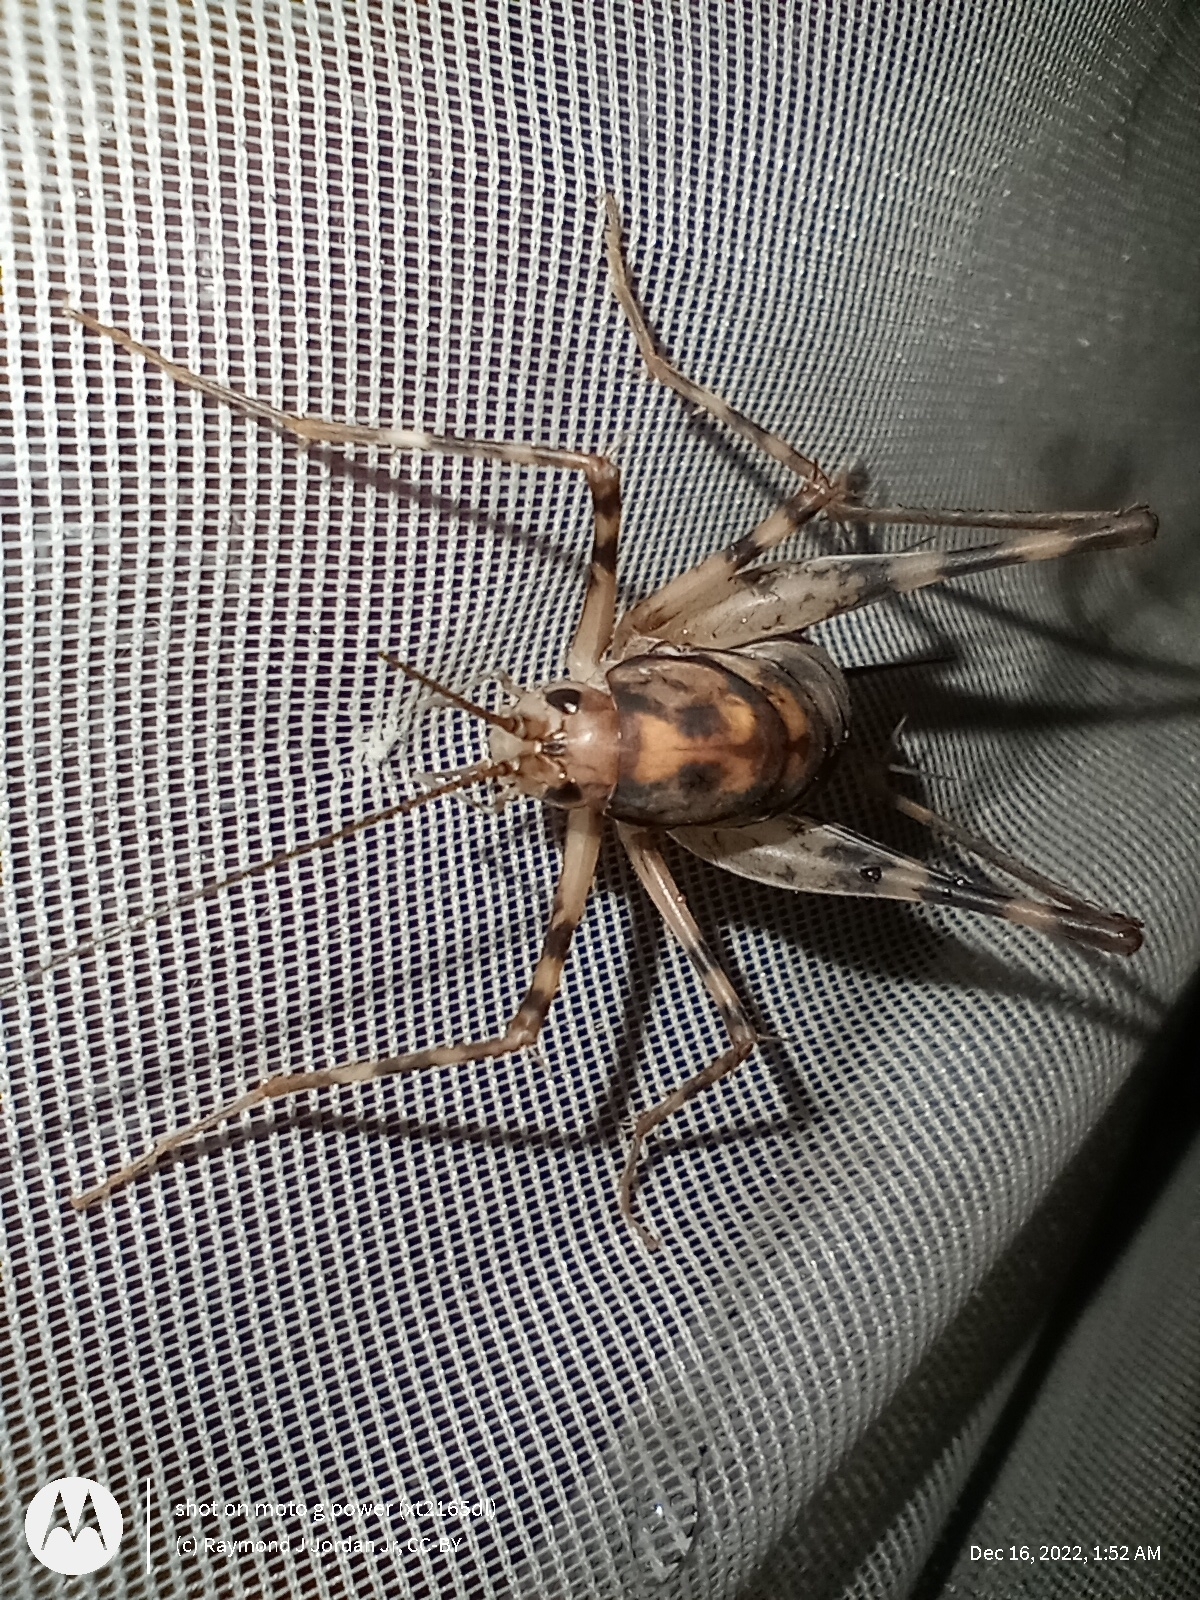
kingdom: Animalia
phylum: Arthropoda
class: Insecta
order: Orthoptera
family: Rhaphidophoridae
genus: Tachycines
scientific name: Tachycines asynamorus
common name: Greenhouse camel cricket
